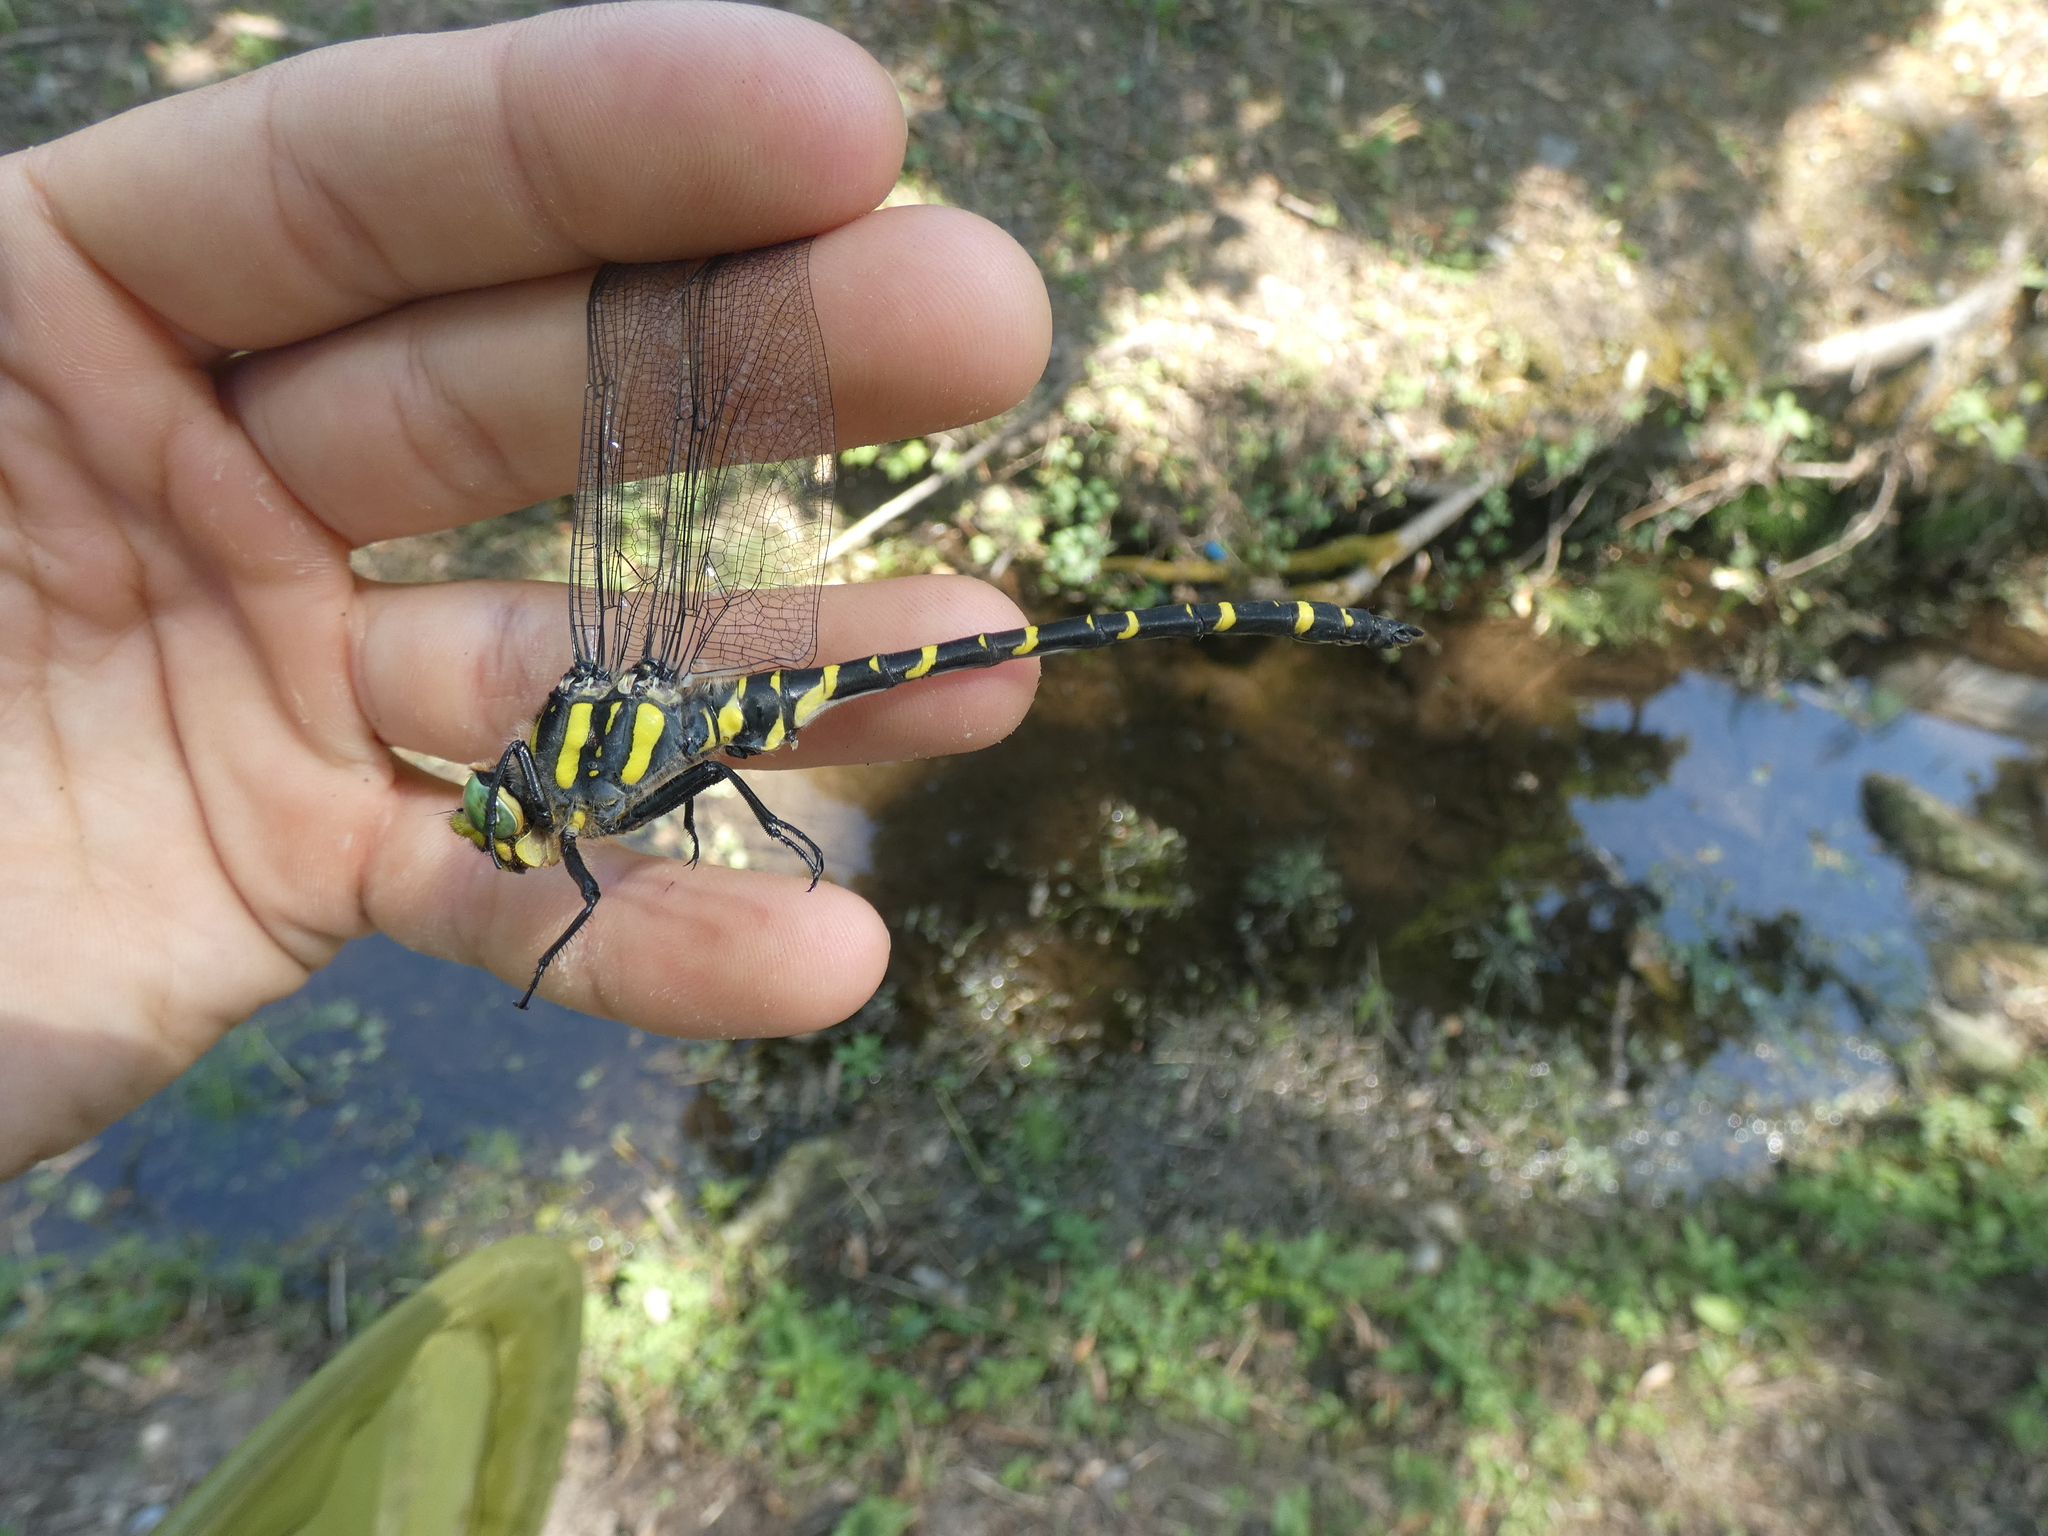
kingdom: Animalia
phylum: Arthropoda
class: Insecta
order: Odonata
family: Cordulegastridae
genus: Cordulegaster
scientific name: Cordulegaster boltonii
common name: Golden-ringed dragonfly
